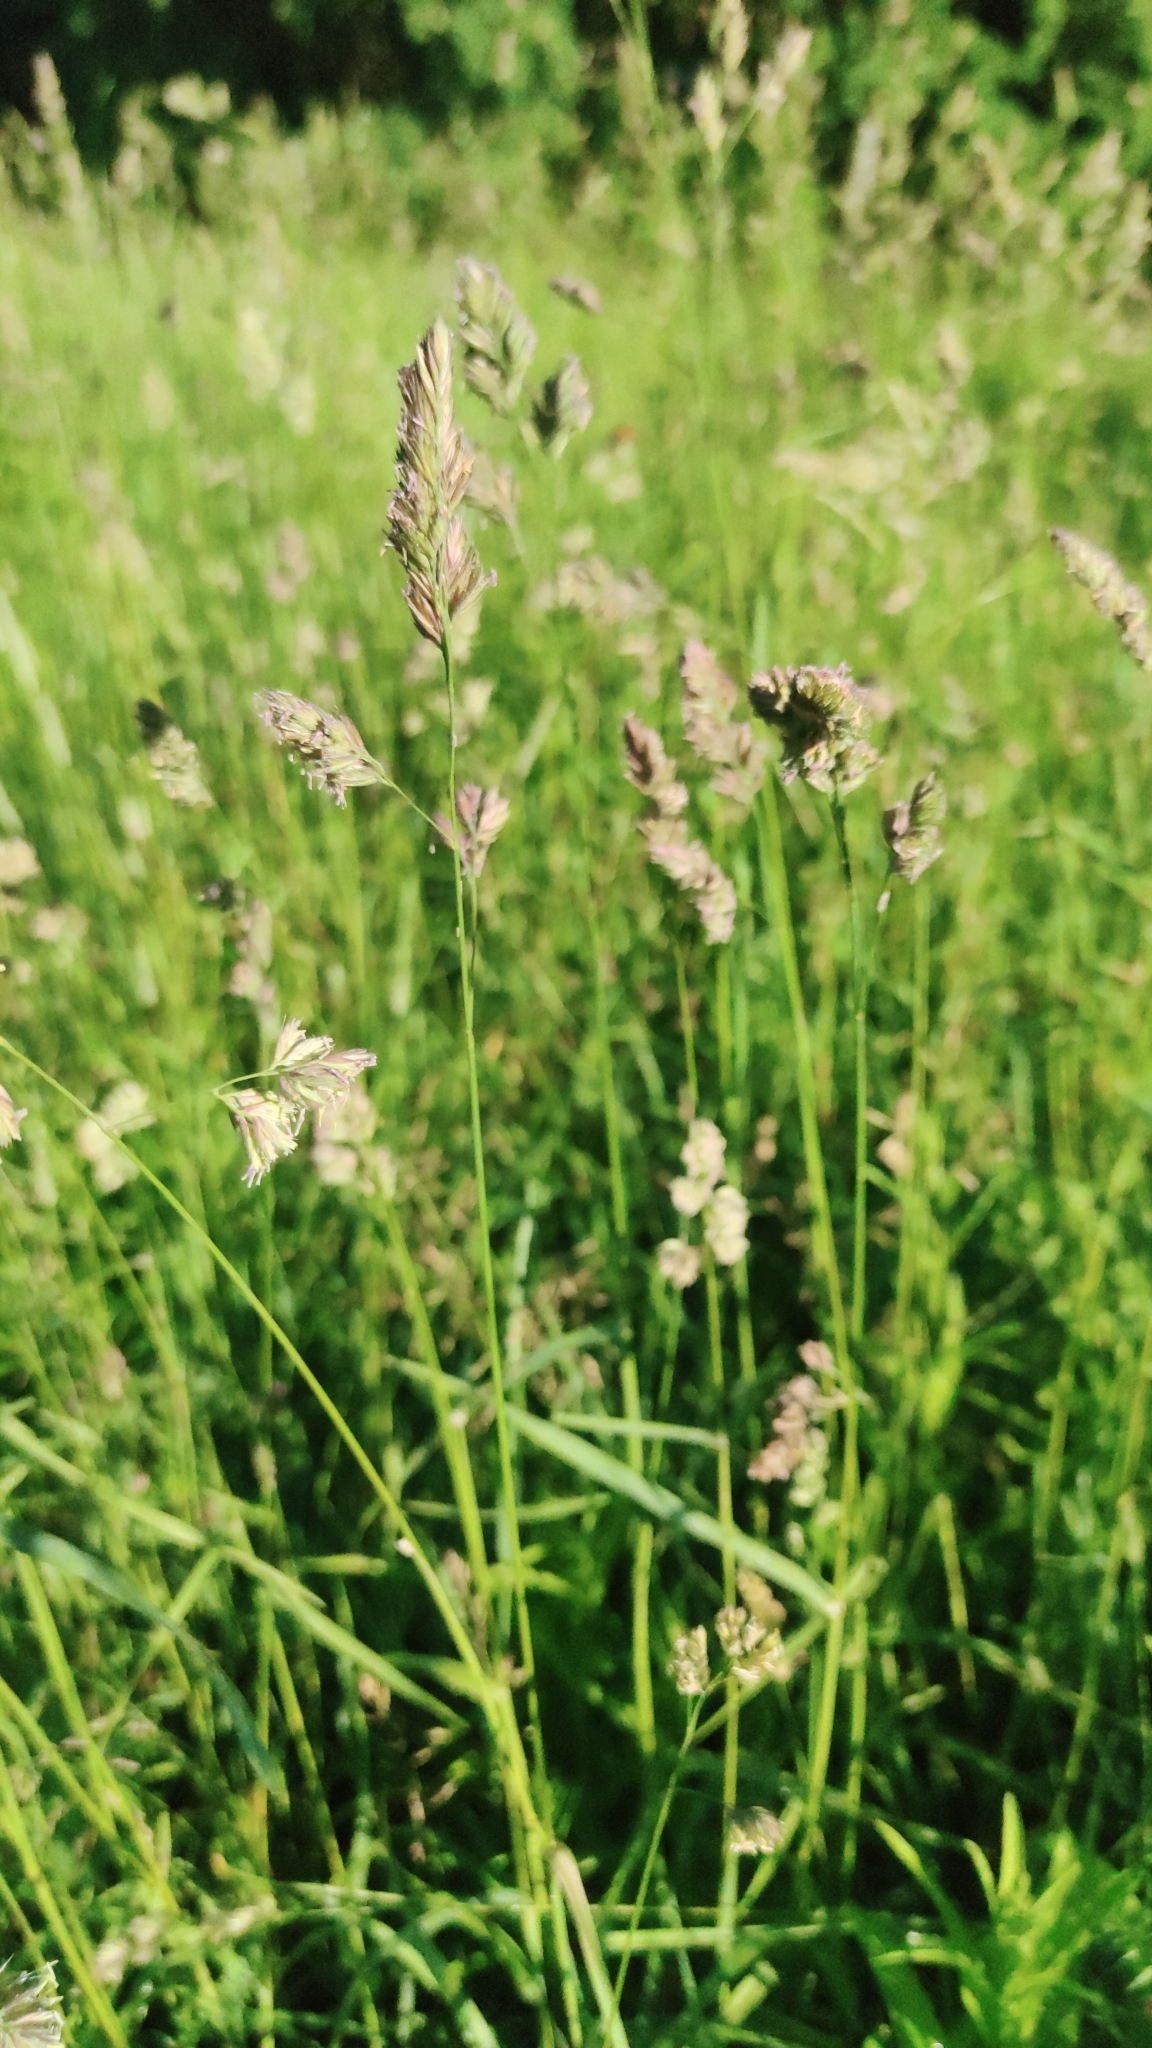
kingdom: Plantae
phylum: Tracheophyta
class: Liliopsida
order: Poales
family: Poaceae
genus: Dactylis
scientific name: Dactylis glomerata
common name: Orchardgrass
